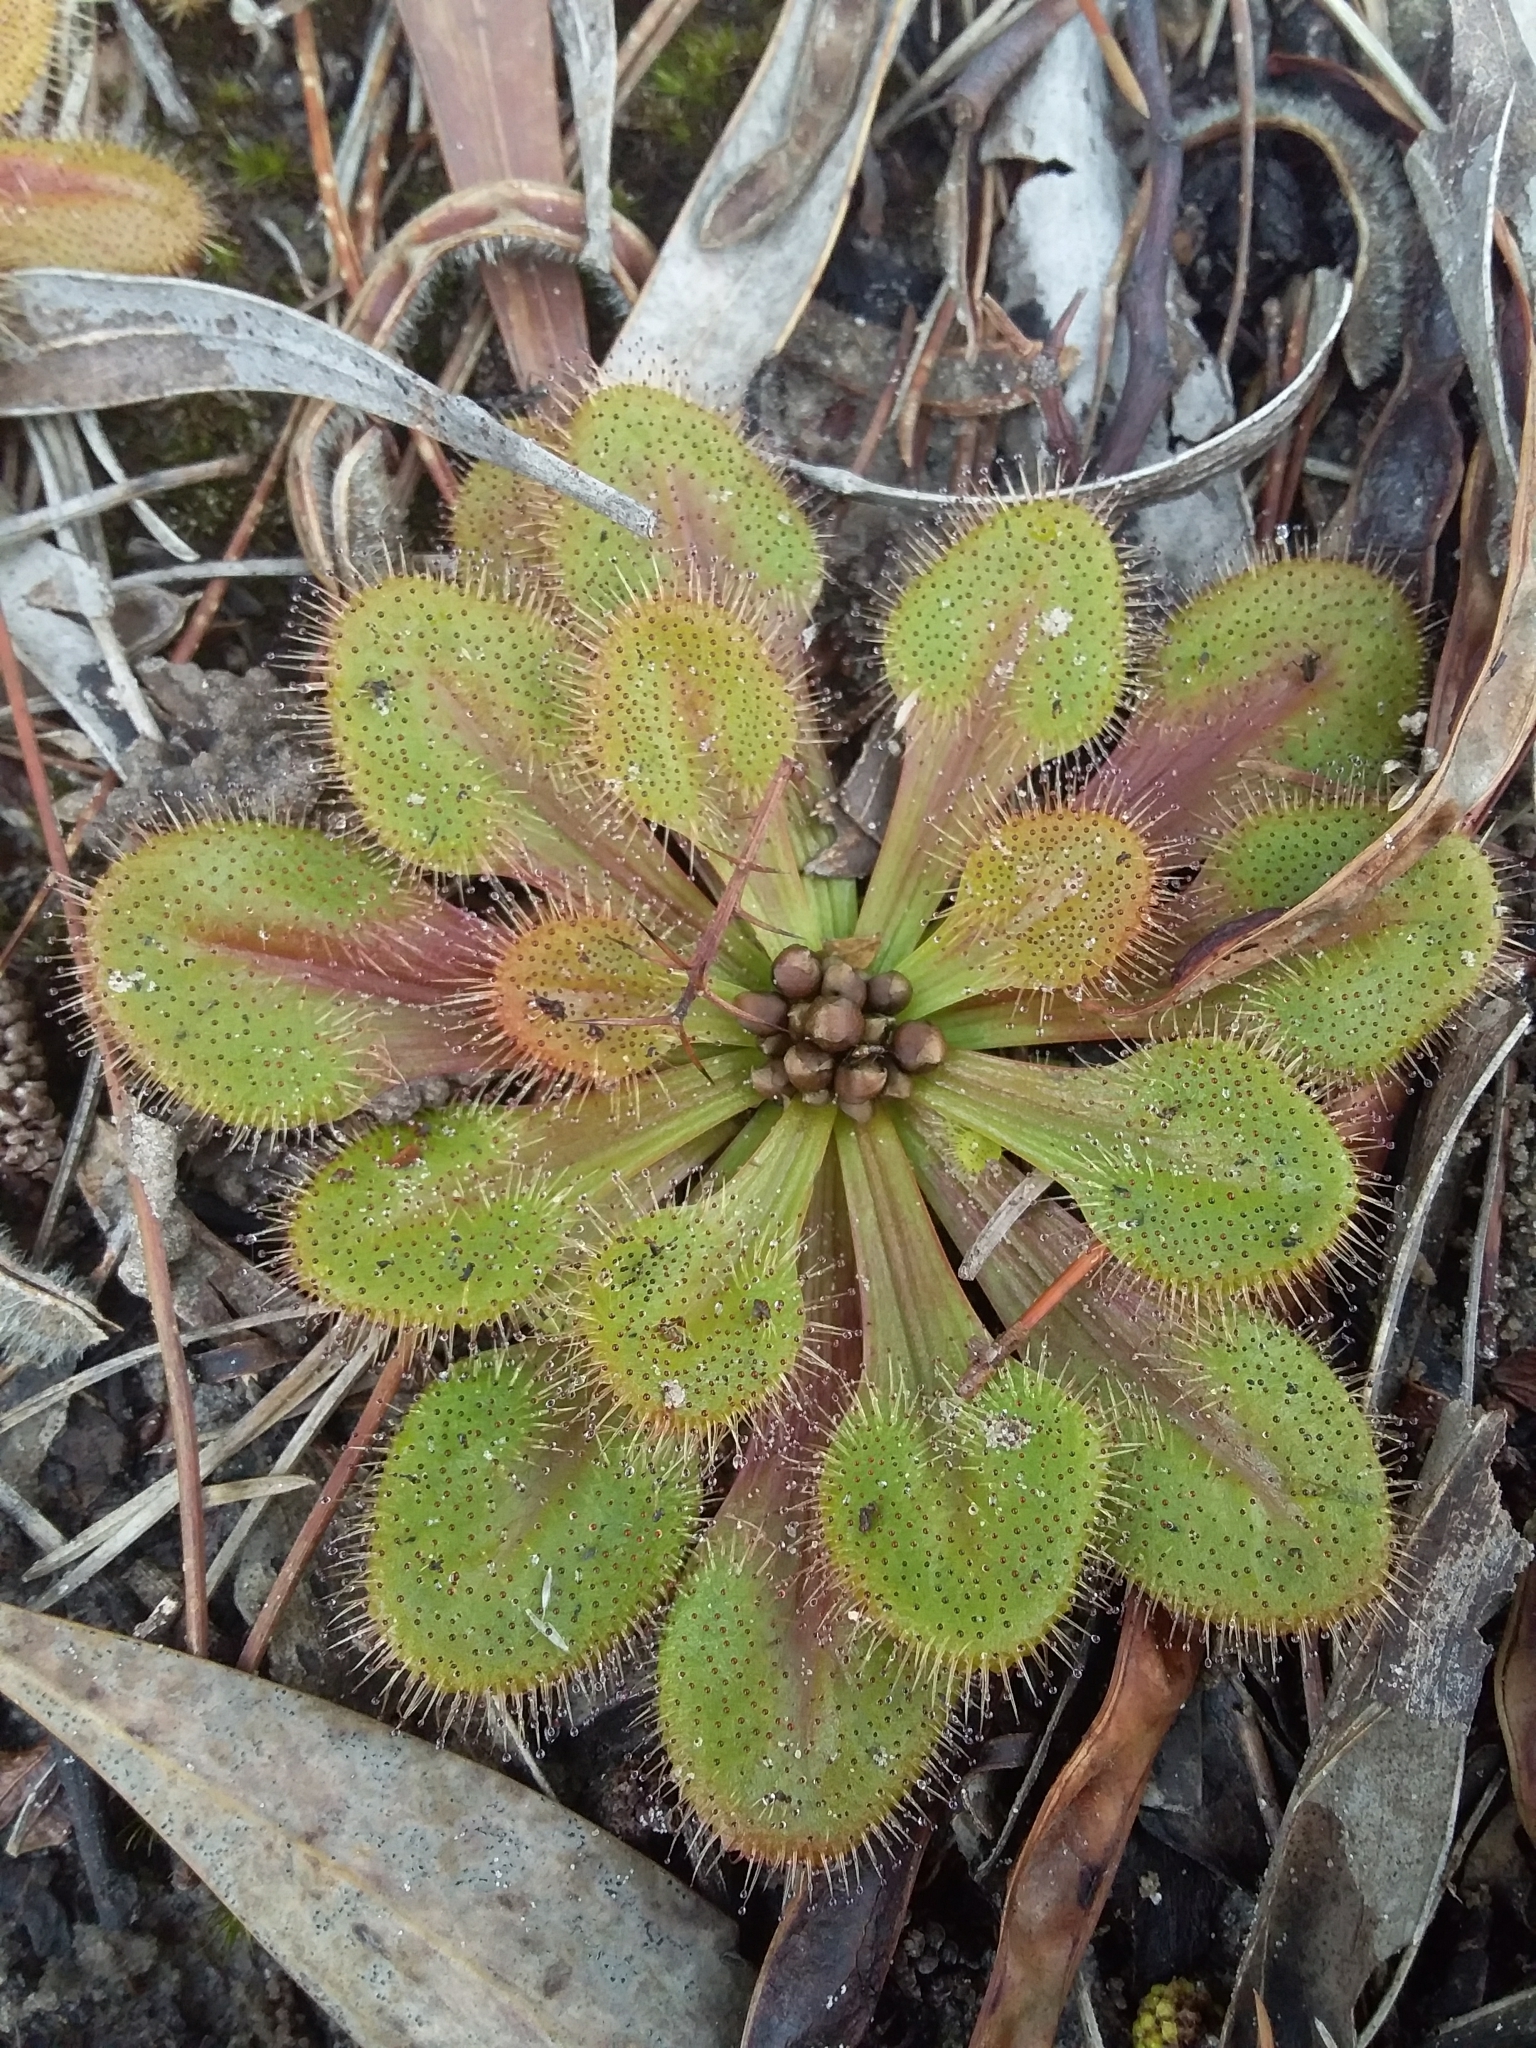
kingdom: Plantae
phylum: Tracheophyta
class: Magnoliopsida
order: Caryophyllales
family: Droseraceae
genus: Drosera
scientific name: Drosera whittakeri
